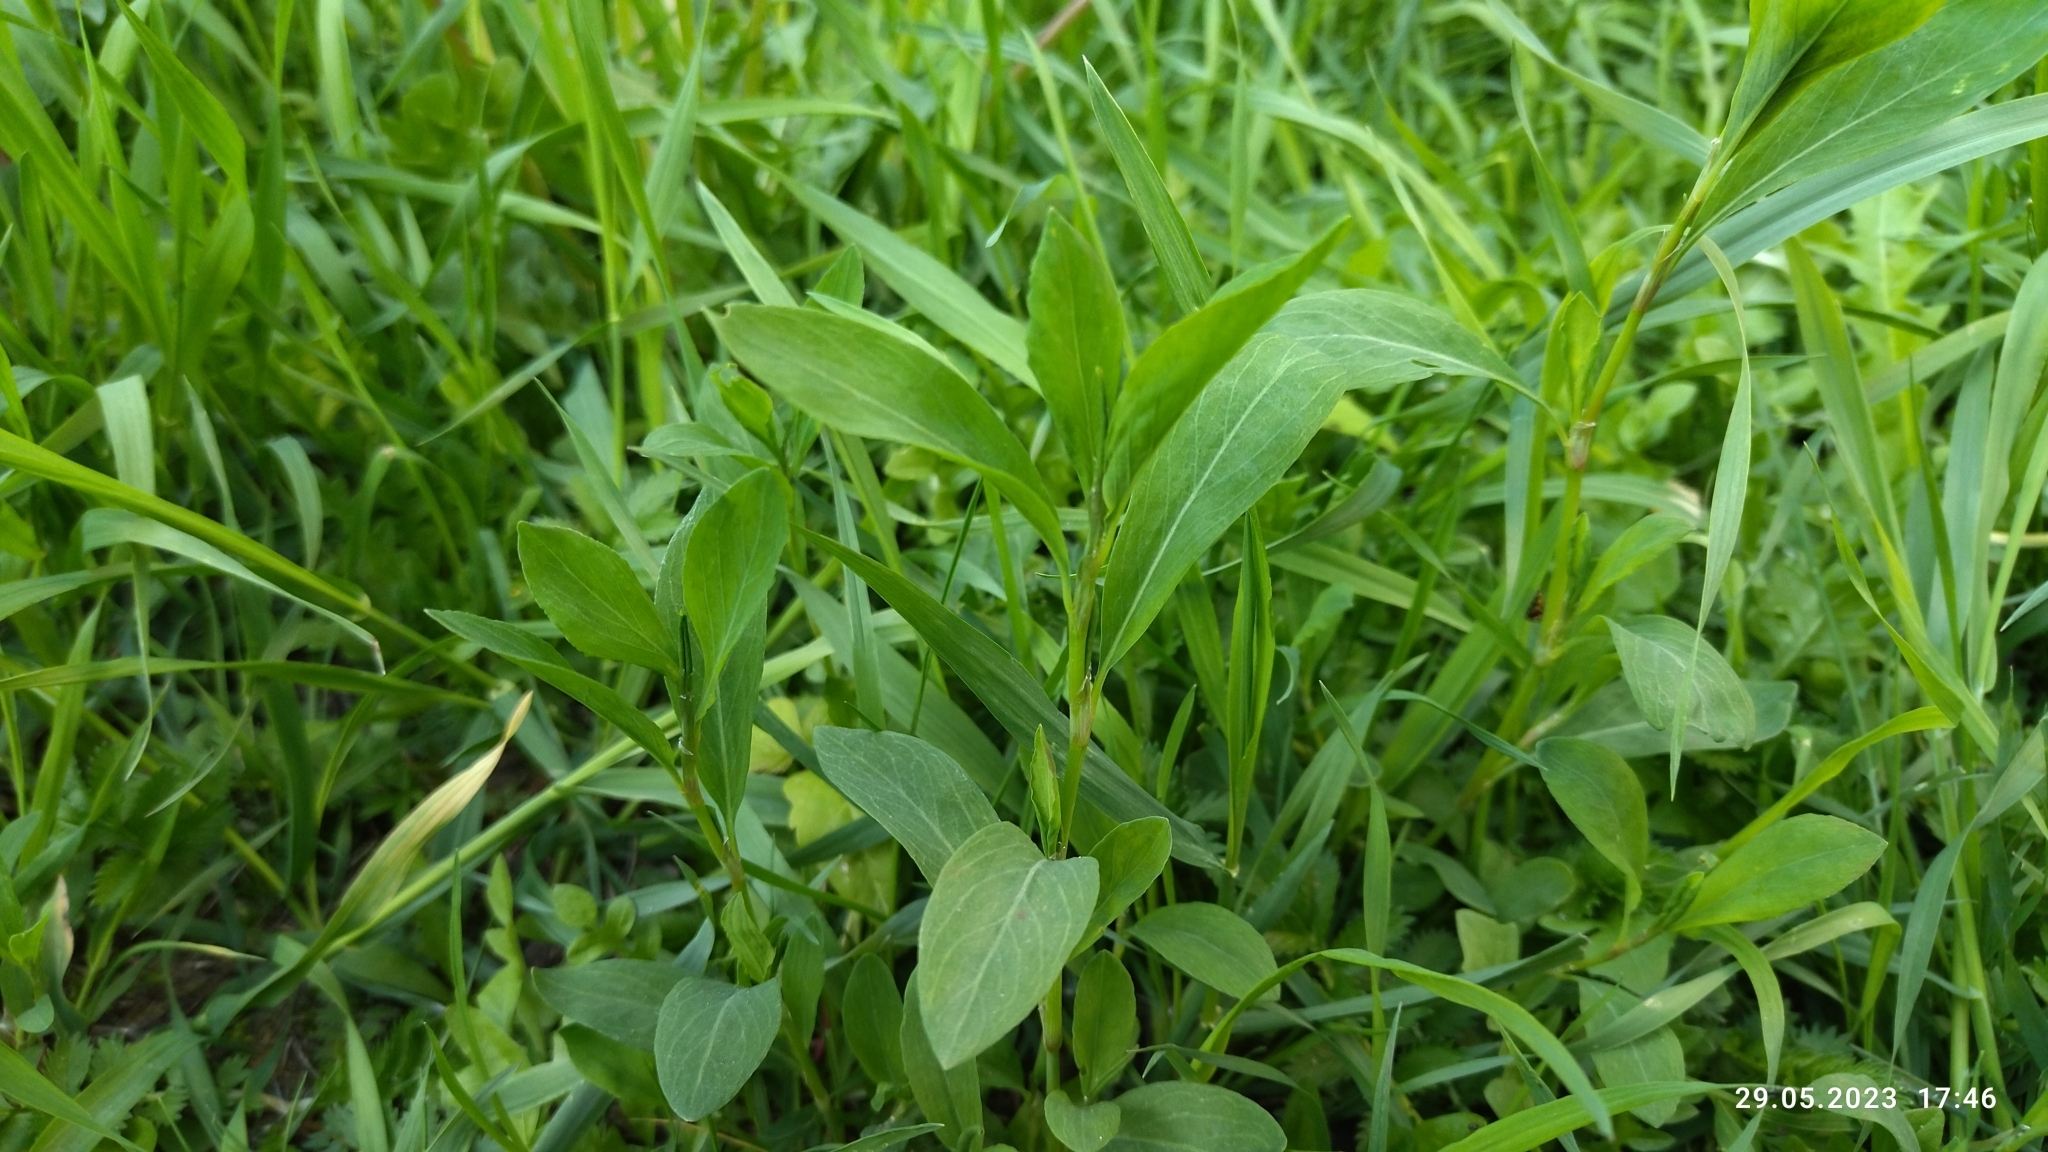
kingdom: Plantae
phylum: Tracheophyta
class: Magnoliopsida
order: Caryophyllales
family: Polygonaceae
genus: Polygonum
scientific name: Polygonum
